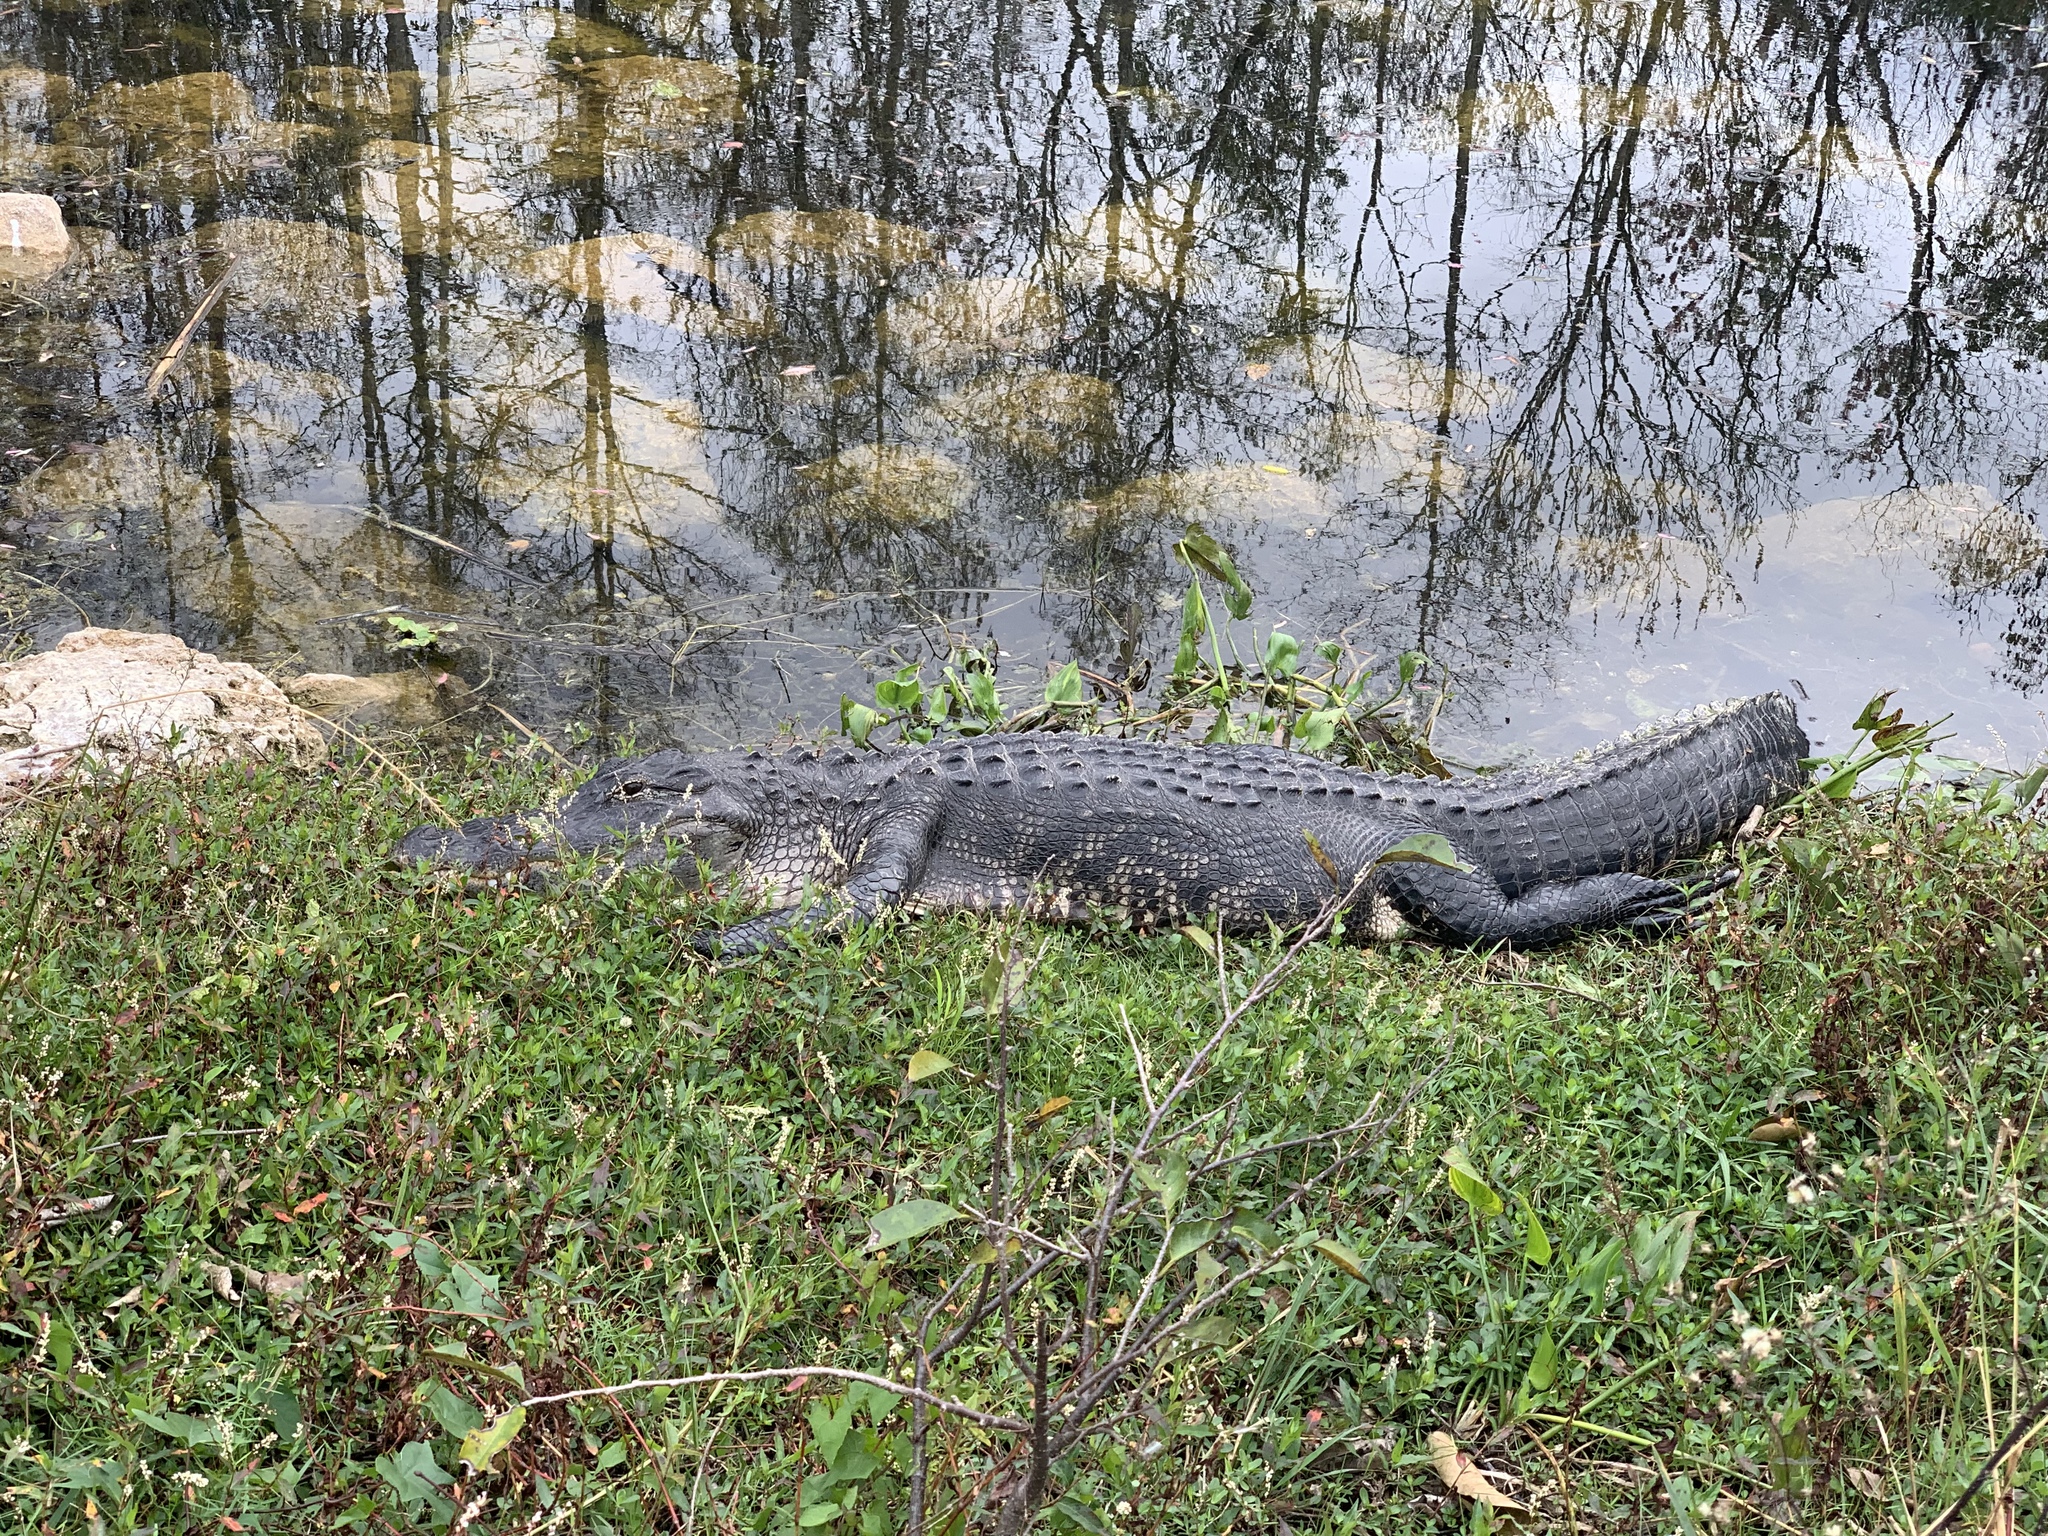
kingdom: Animalia
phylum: Chordata
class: Crocodylia
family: Alligatoridae
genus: Alligator
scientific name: Alligator mississippiensis
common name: American alligator
